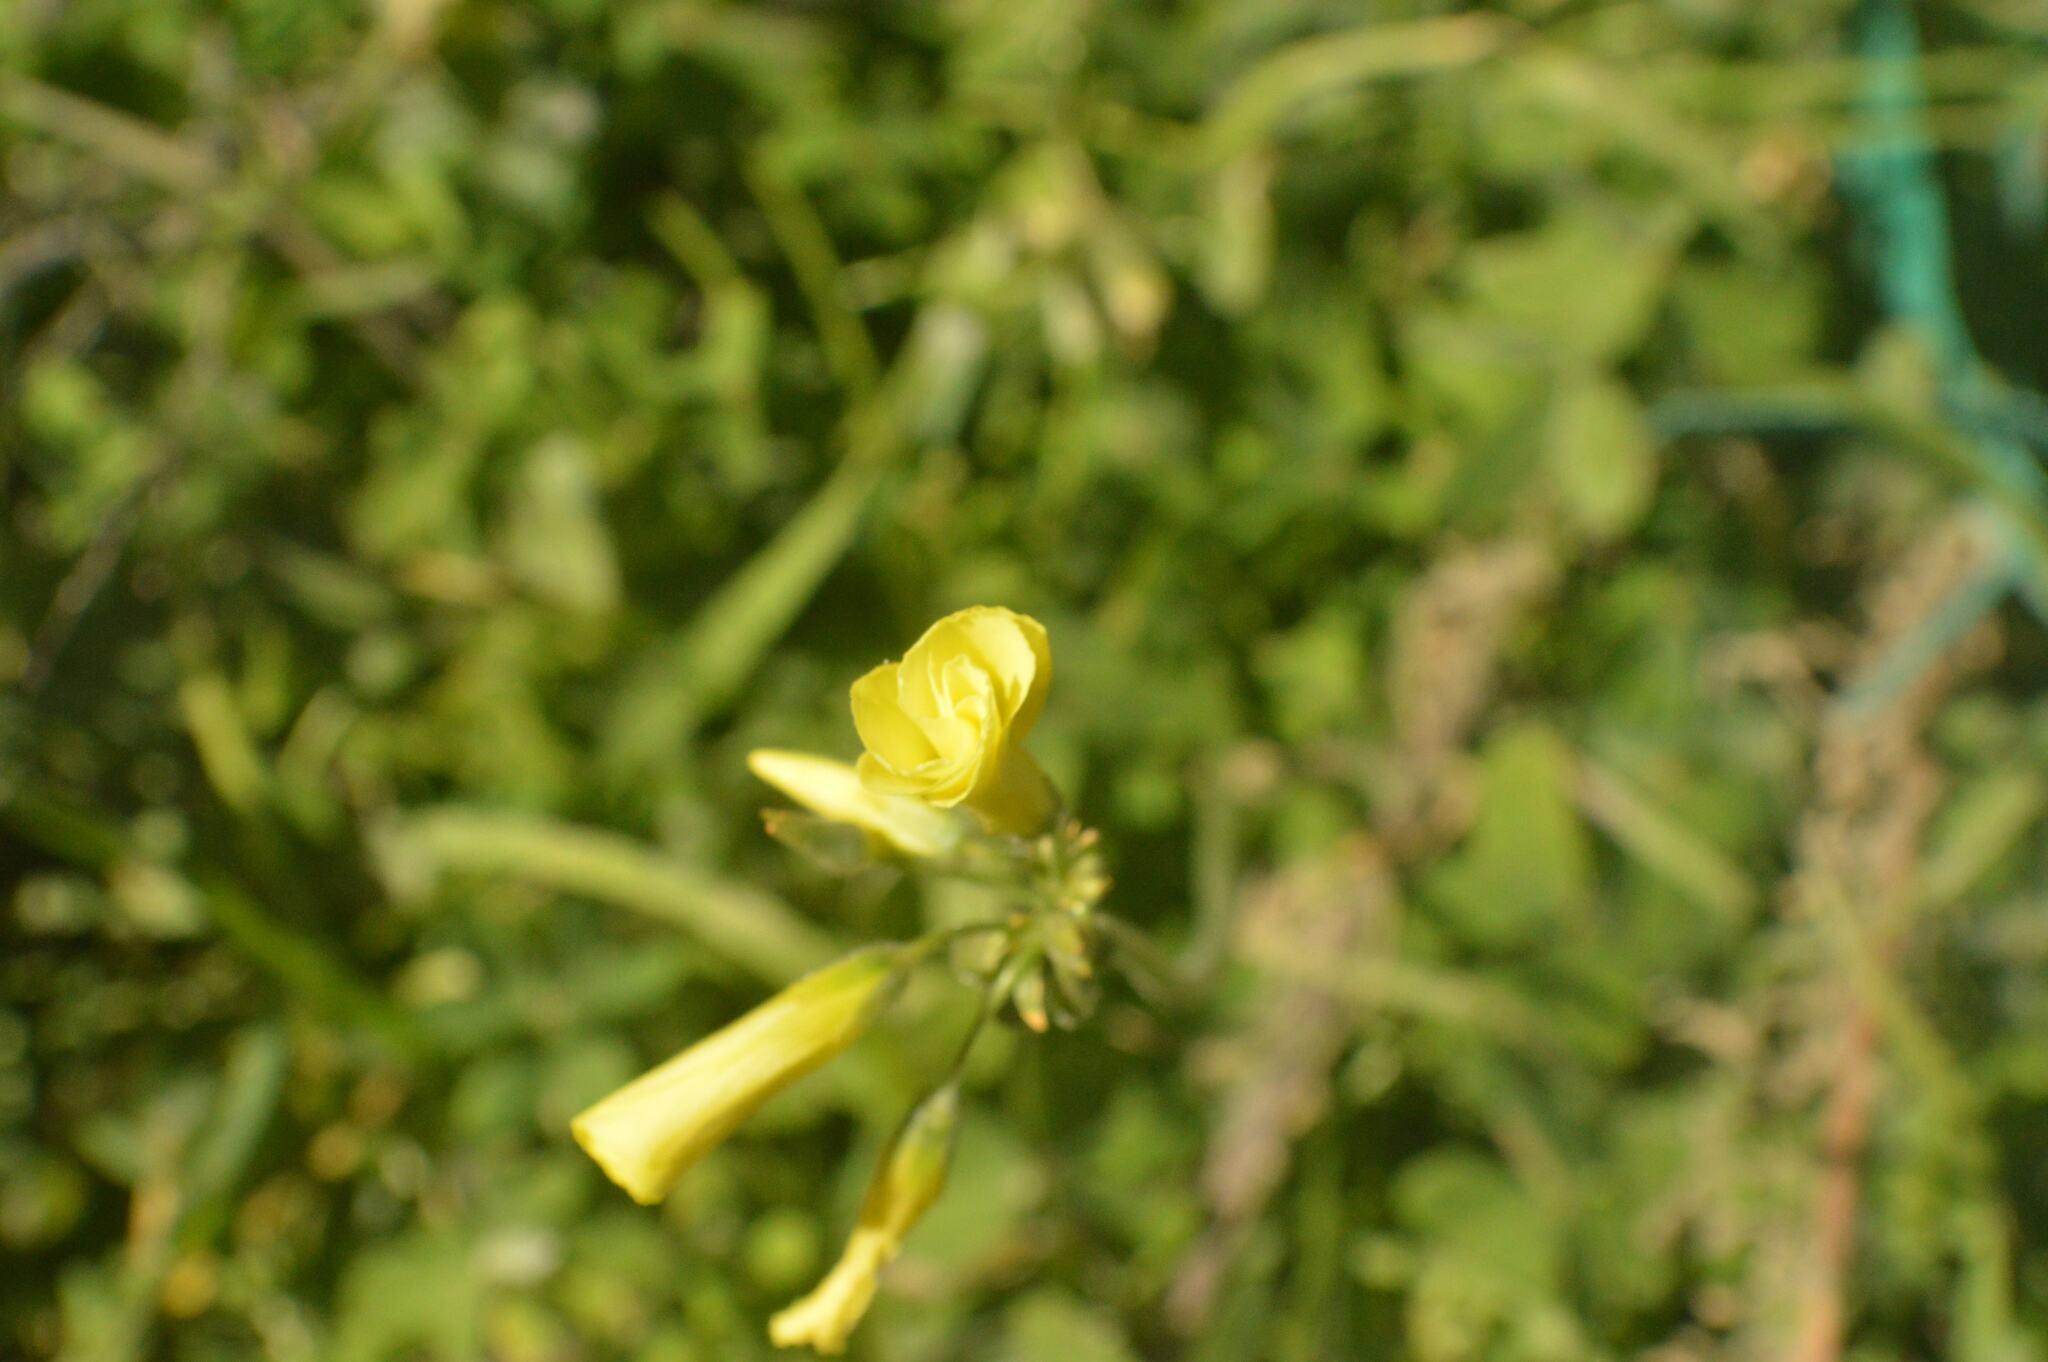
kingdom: Plantae
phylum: Tracheophyta
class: Magnoliopsida
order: Oxalidales
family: Oxalidaceae
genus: Oxalis
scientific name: Oxalis pes-caprae
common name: Bermuda-buttercup
